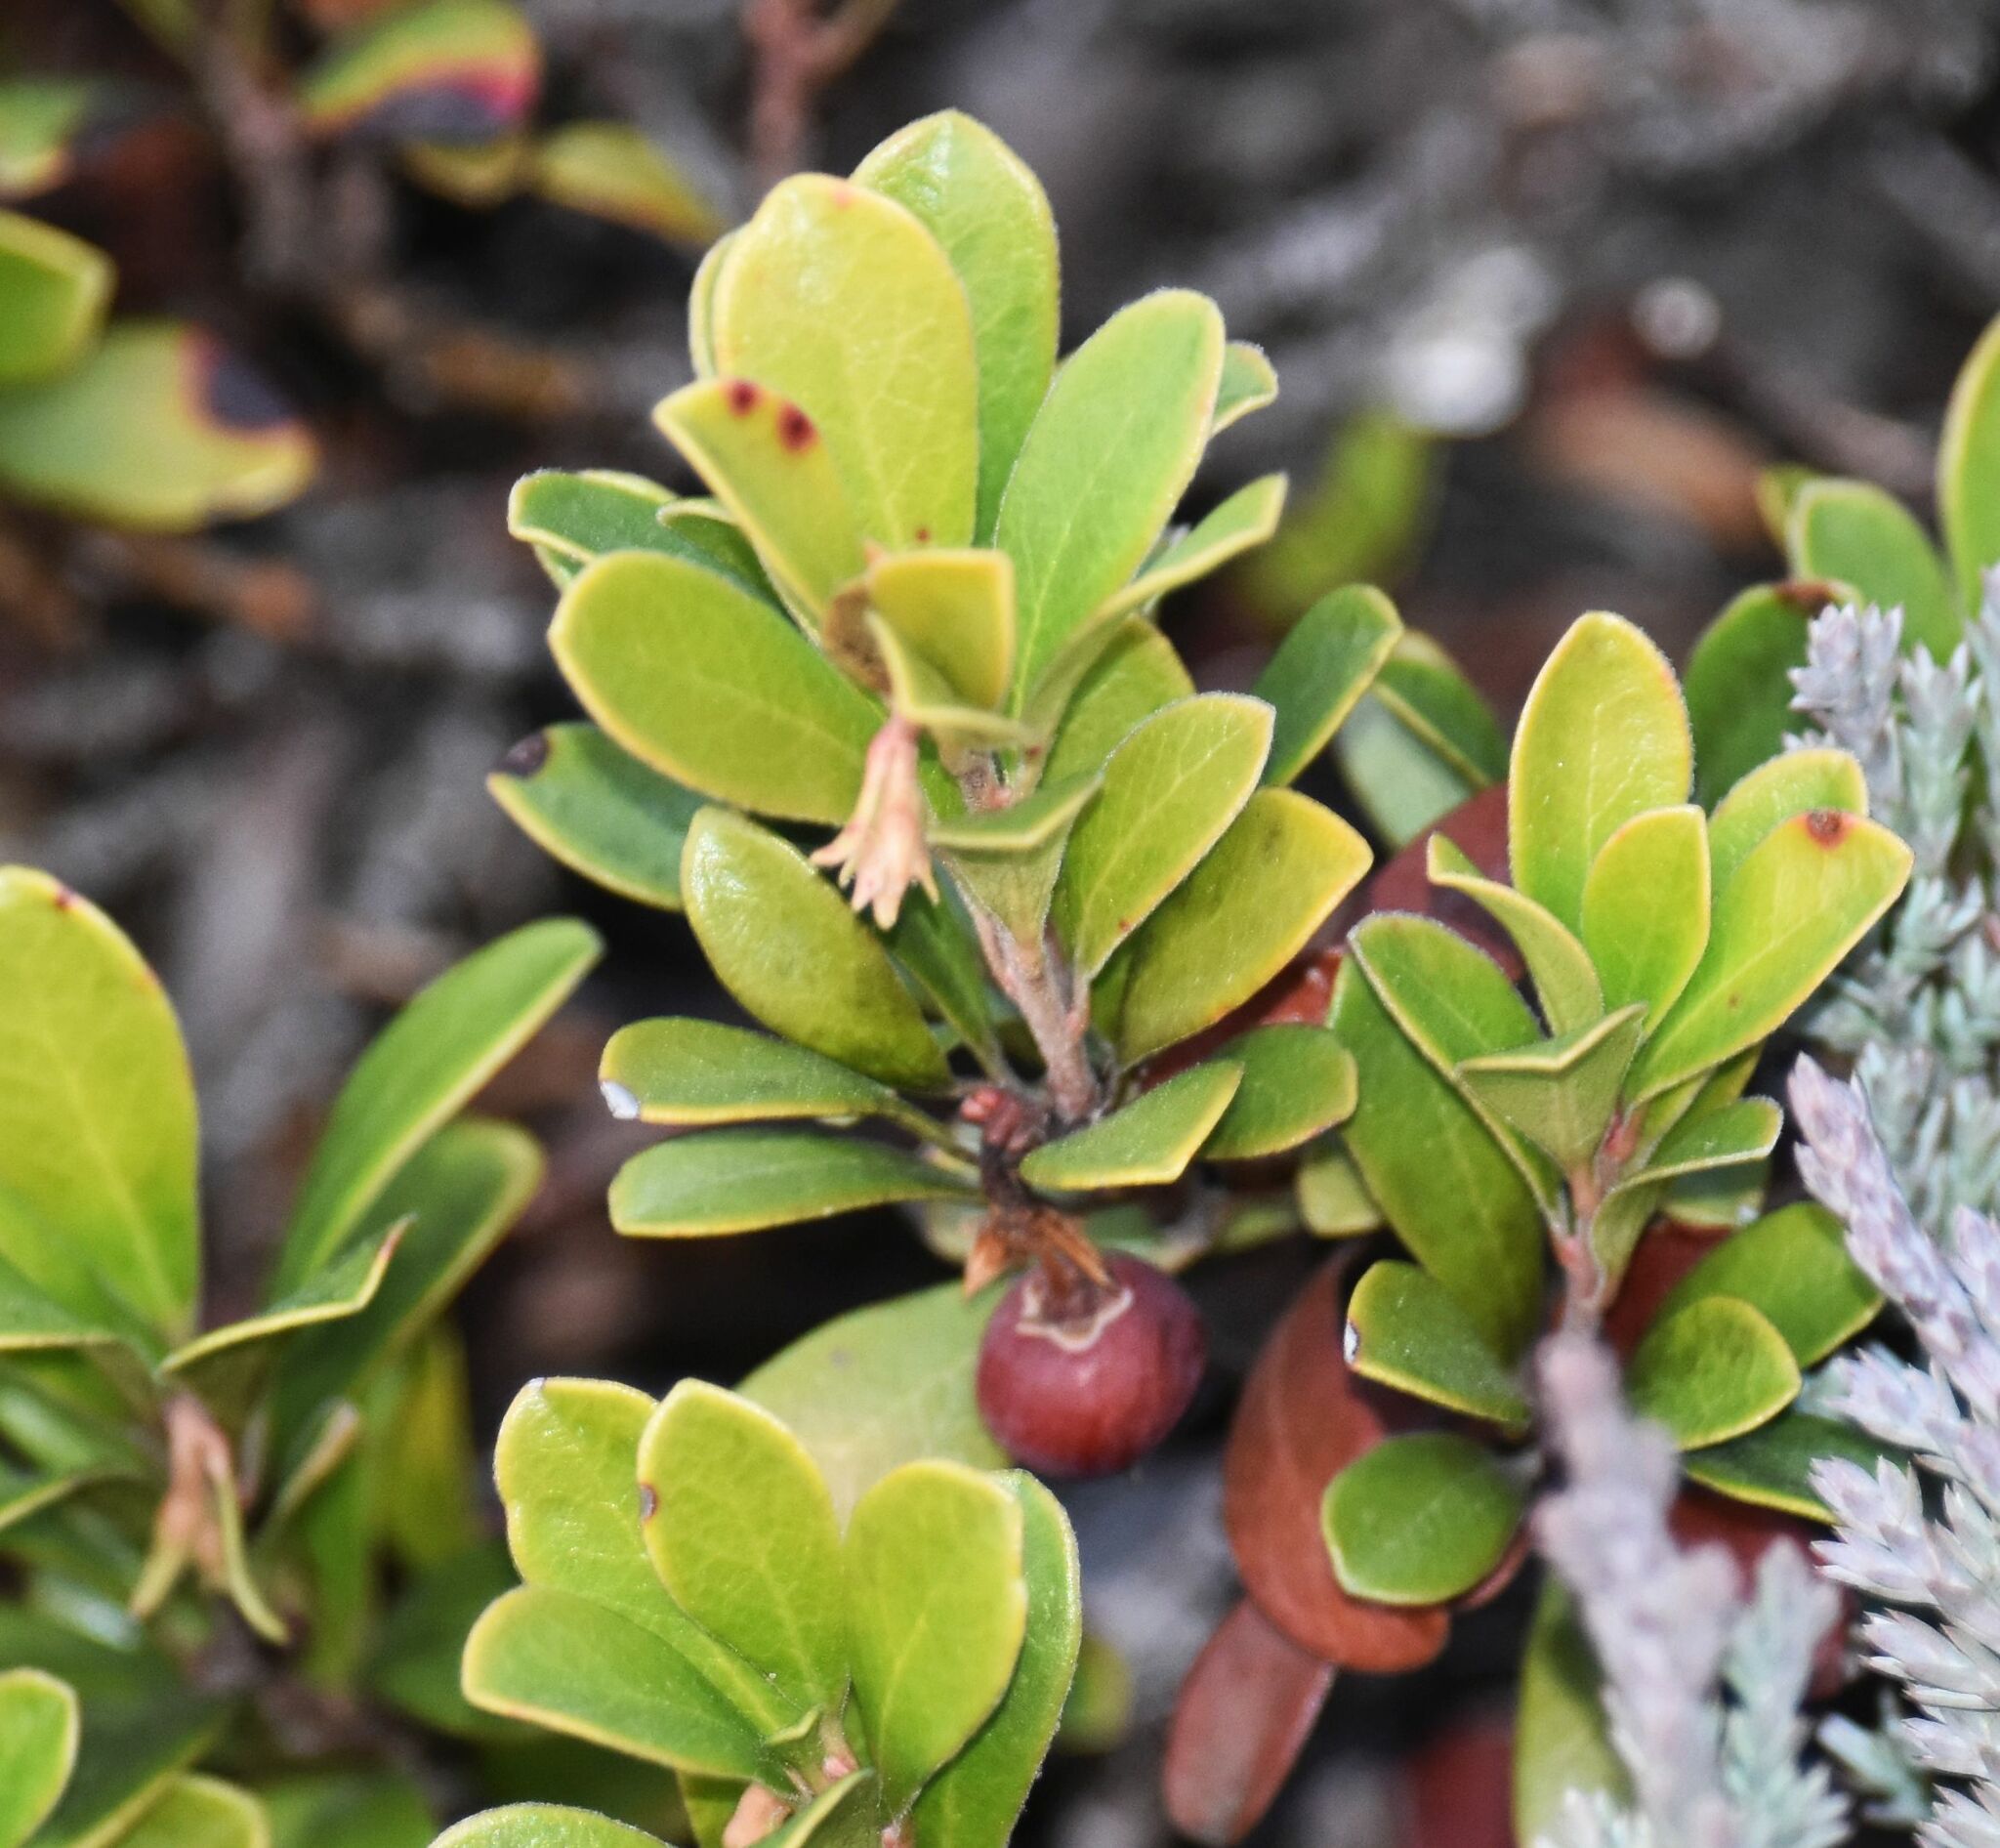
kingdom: Plantae
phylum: Tracheophyta
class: Magnoliopsida
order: Ericales
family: Ericaceae
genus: Arctostaphylos
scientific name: Arctostaphylos uva-ursi
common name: Bearberry
